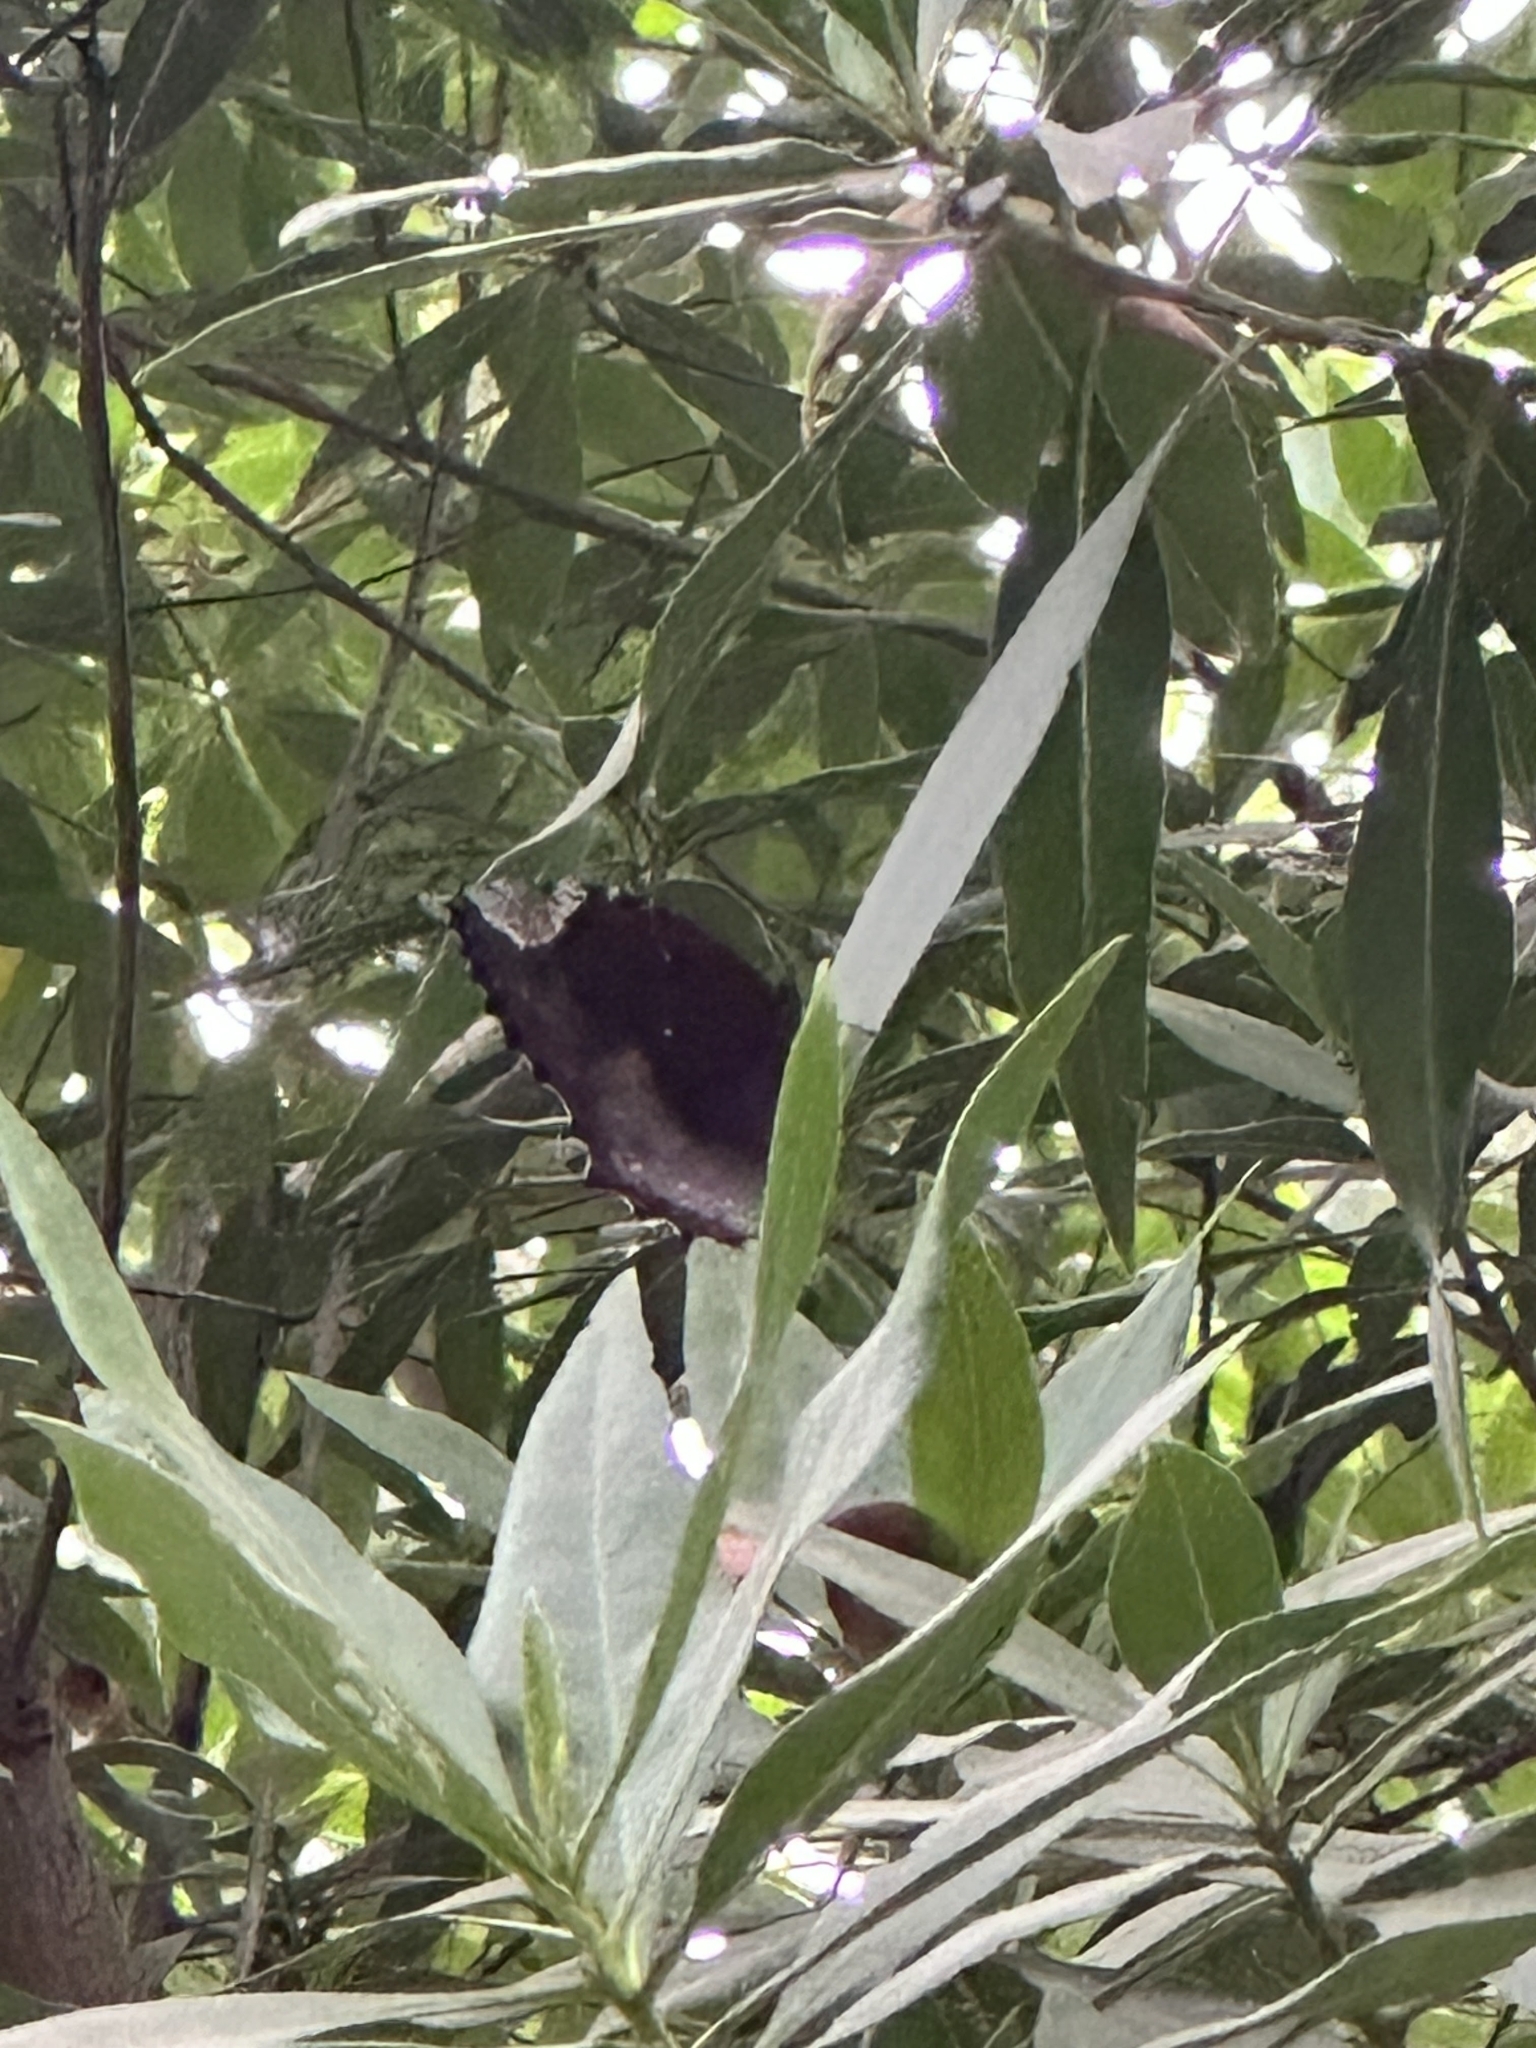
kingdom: Animalia
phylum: Arthropoda
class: Insecta
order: Lepidoptera
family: Nymphalidae
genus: Elymnias
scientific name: Elymnias hypermnestra
